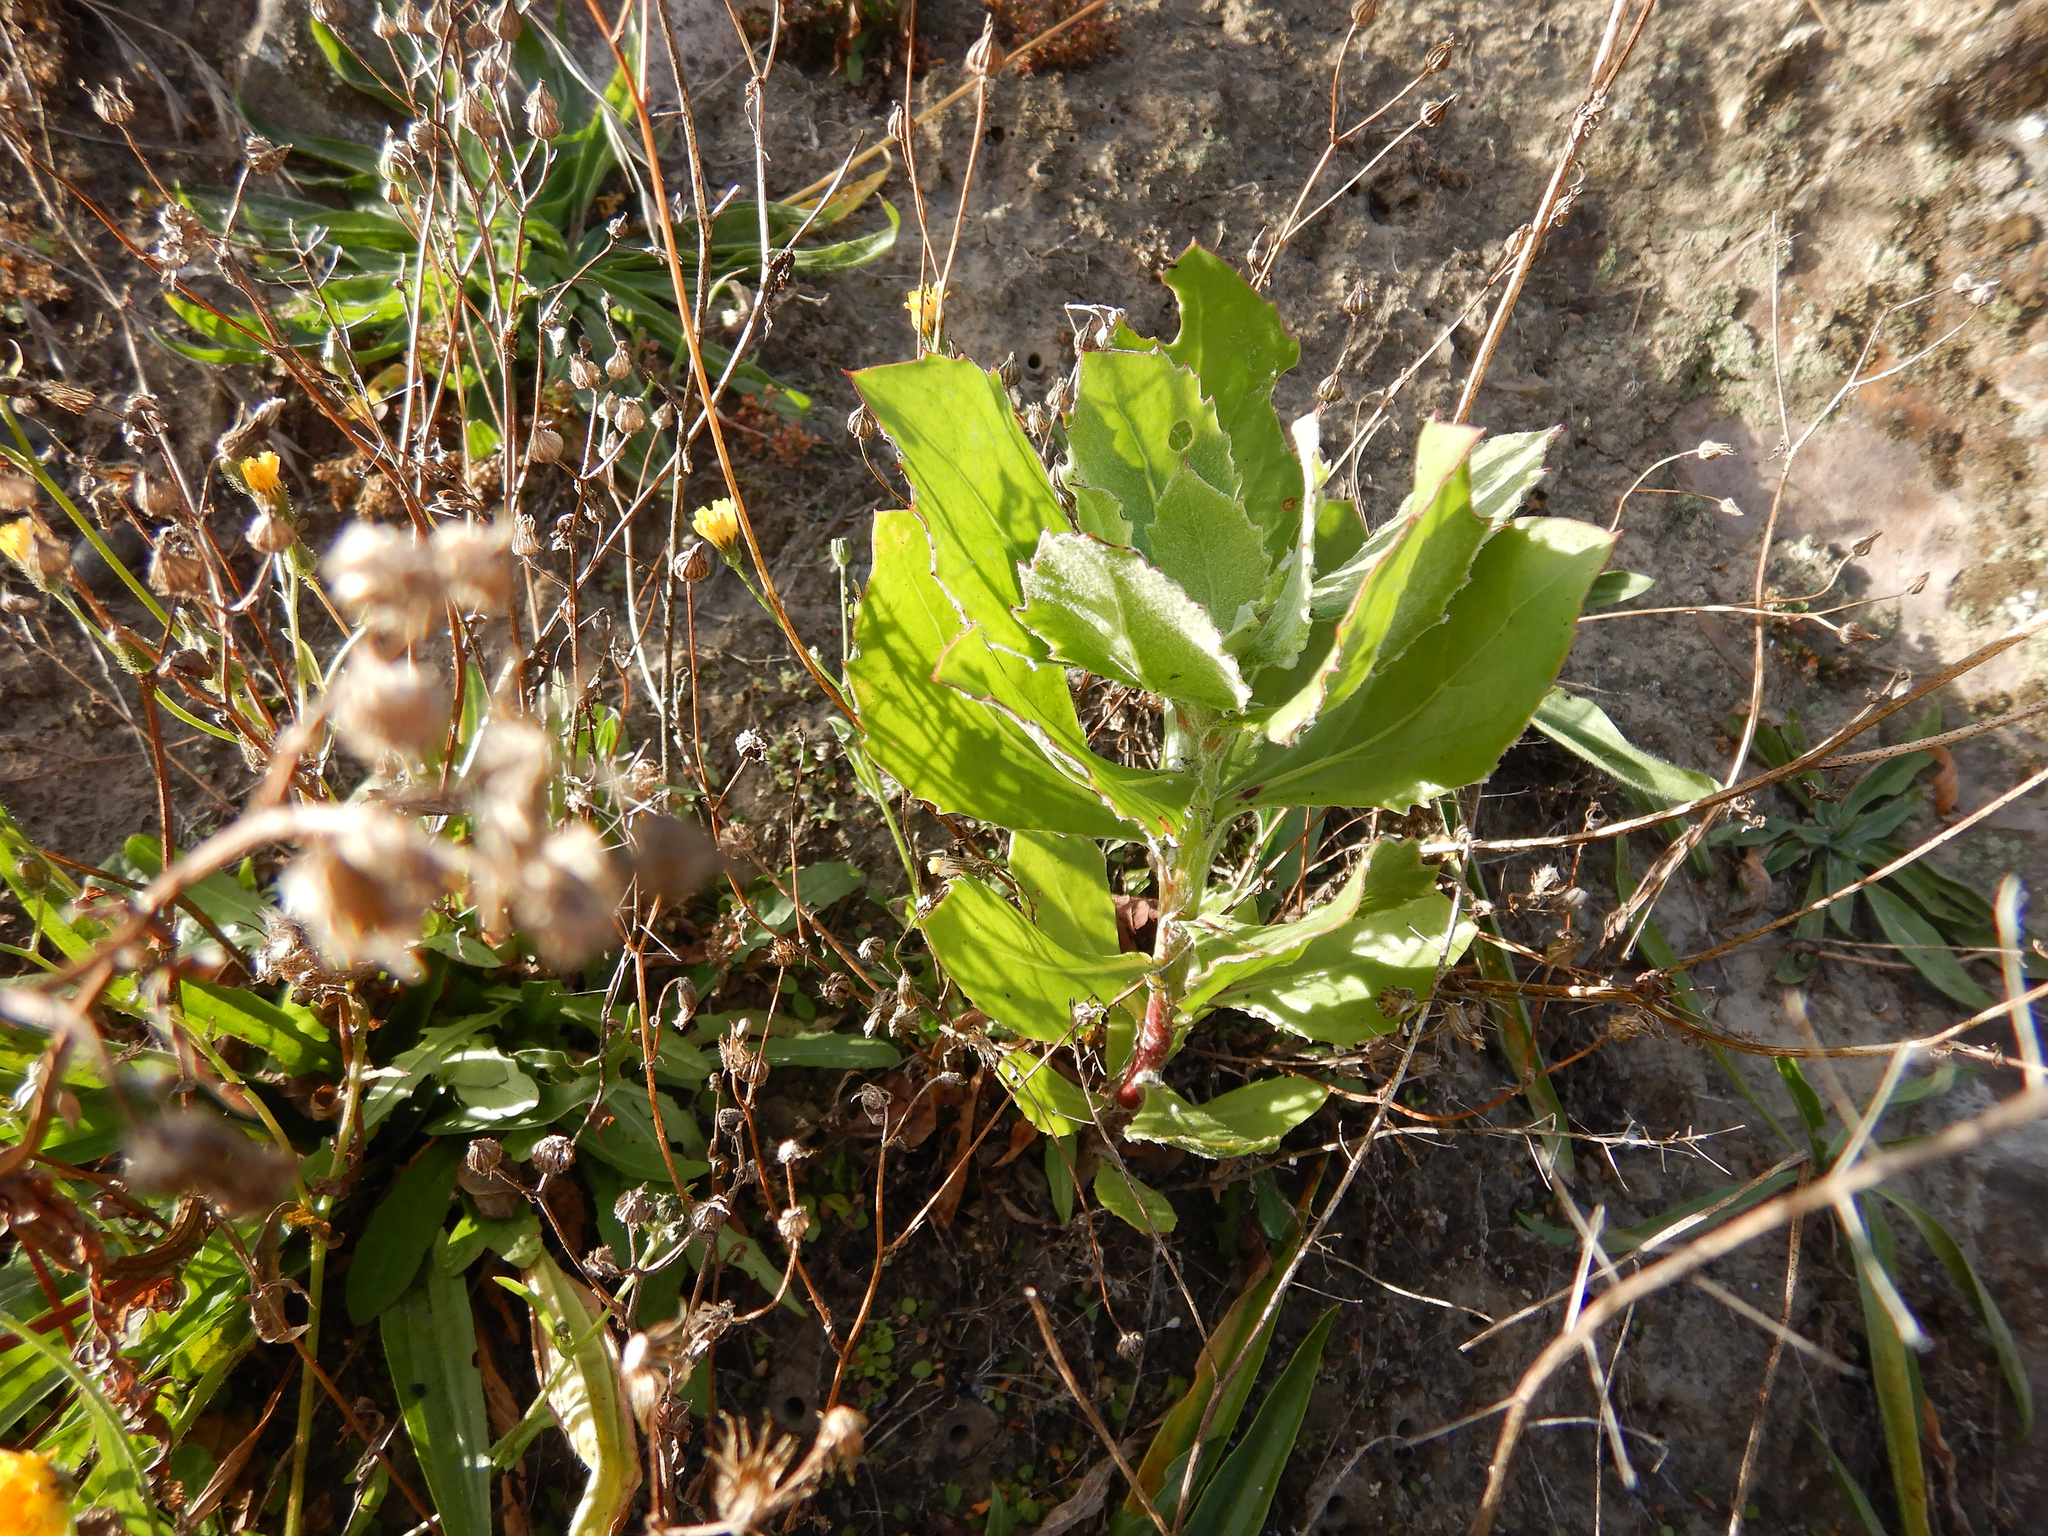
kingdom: Plantae
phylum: Tracheophyta
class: Magnoliopsida
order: Asterales
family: Asteraceae
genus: Osteospermum
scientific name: Osteospermum moniliferum
